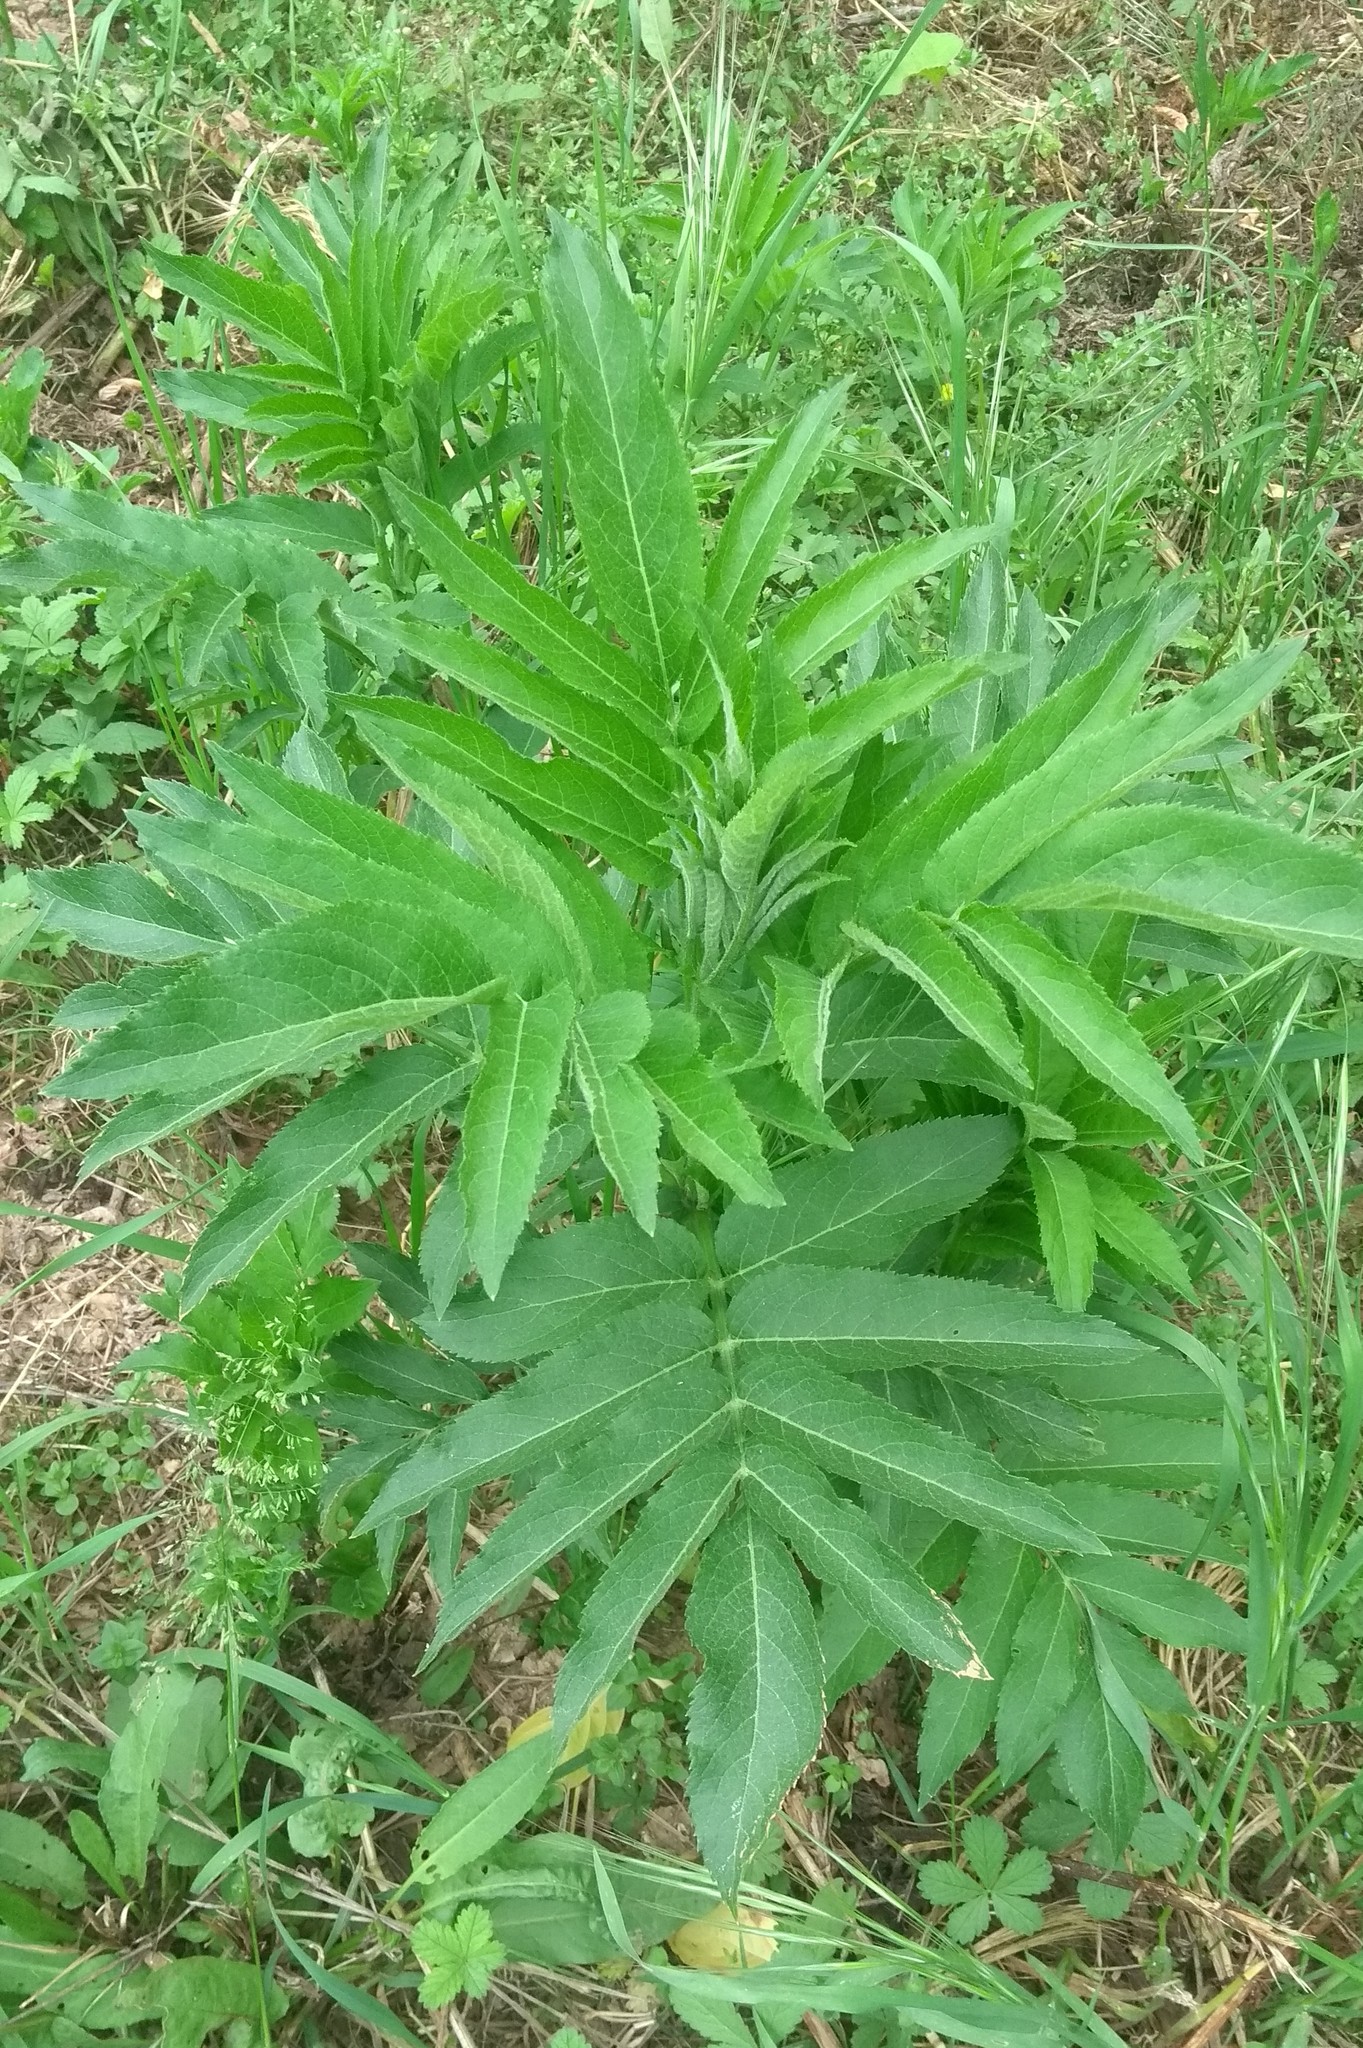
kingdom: Plantae
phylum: Tracheophyta
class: Magnoliopsida
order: Dipsacales
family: Viburnaceae
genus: Sambucus
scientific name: Sambucus ebulus
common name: Dwarf elder
